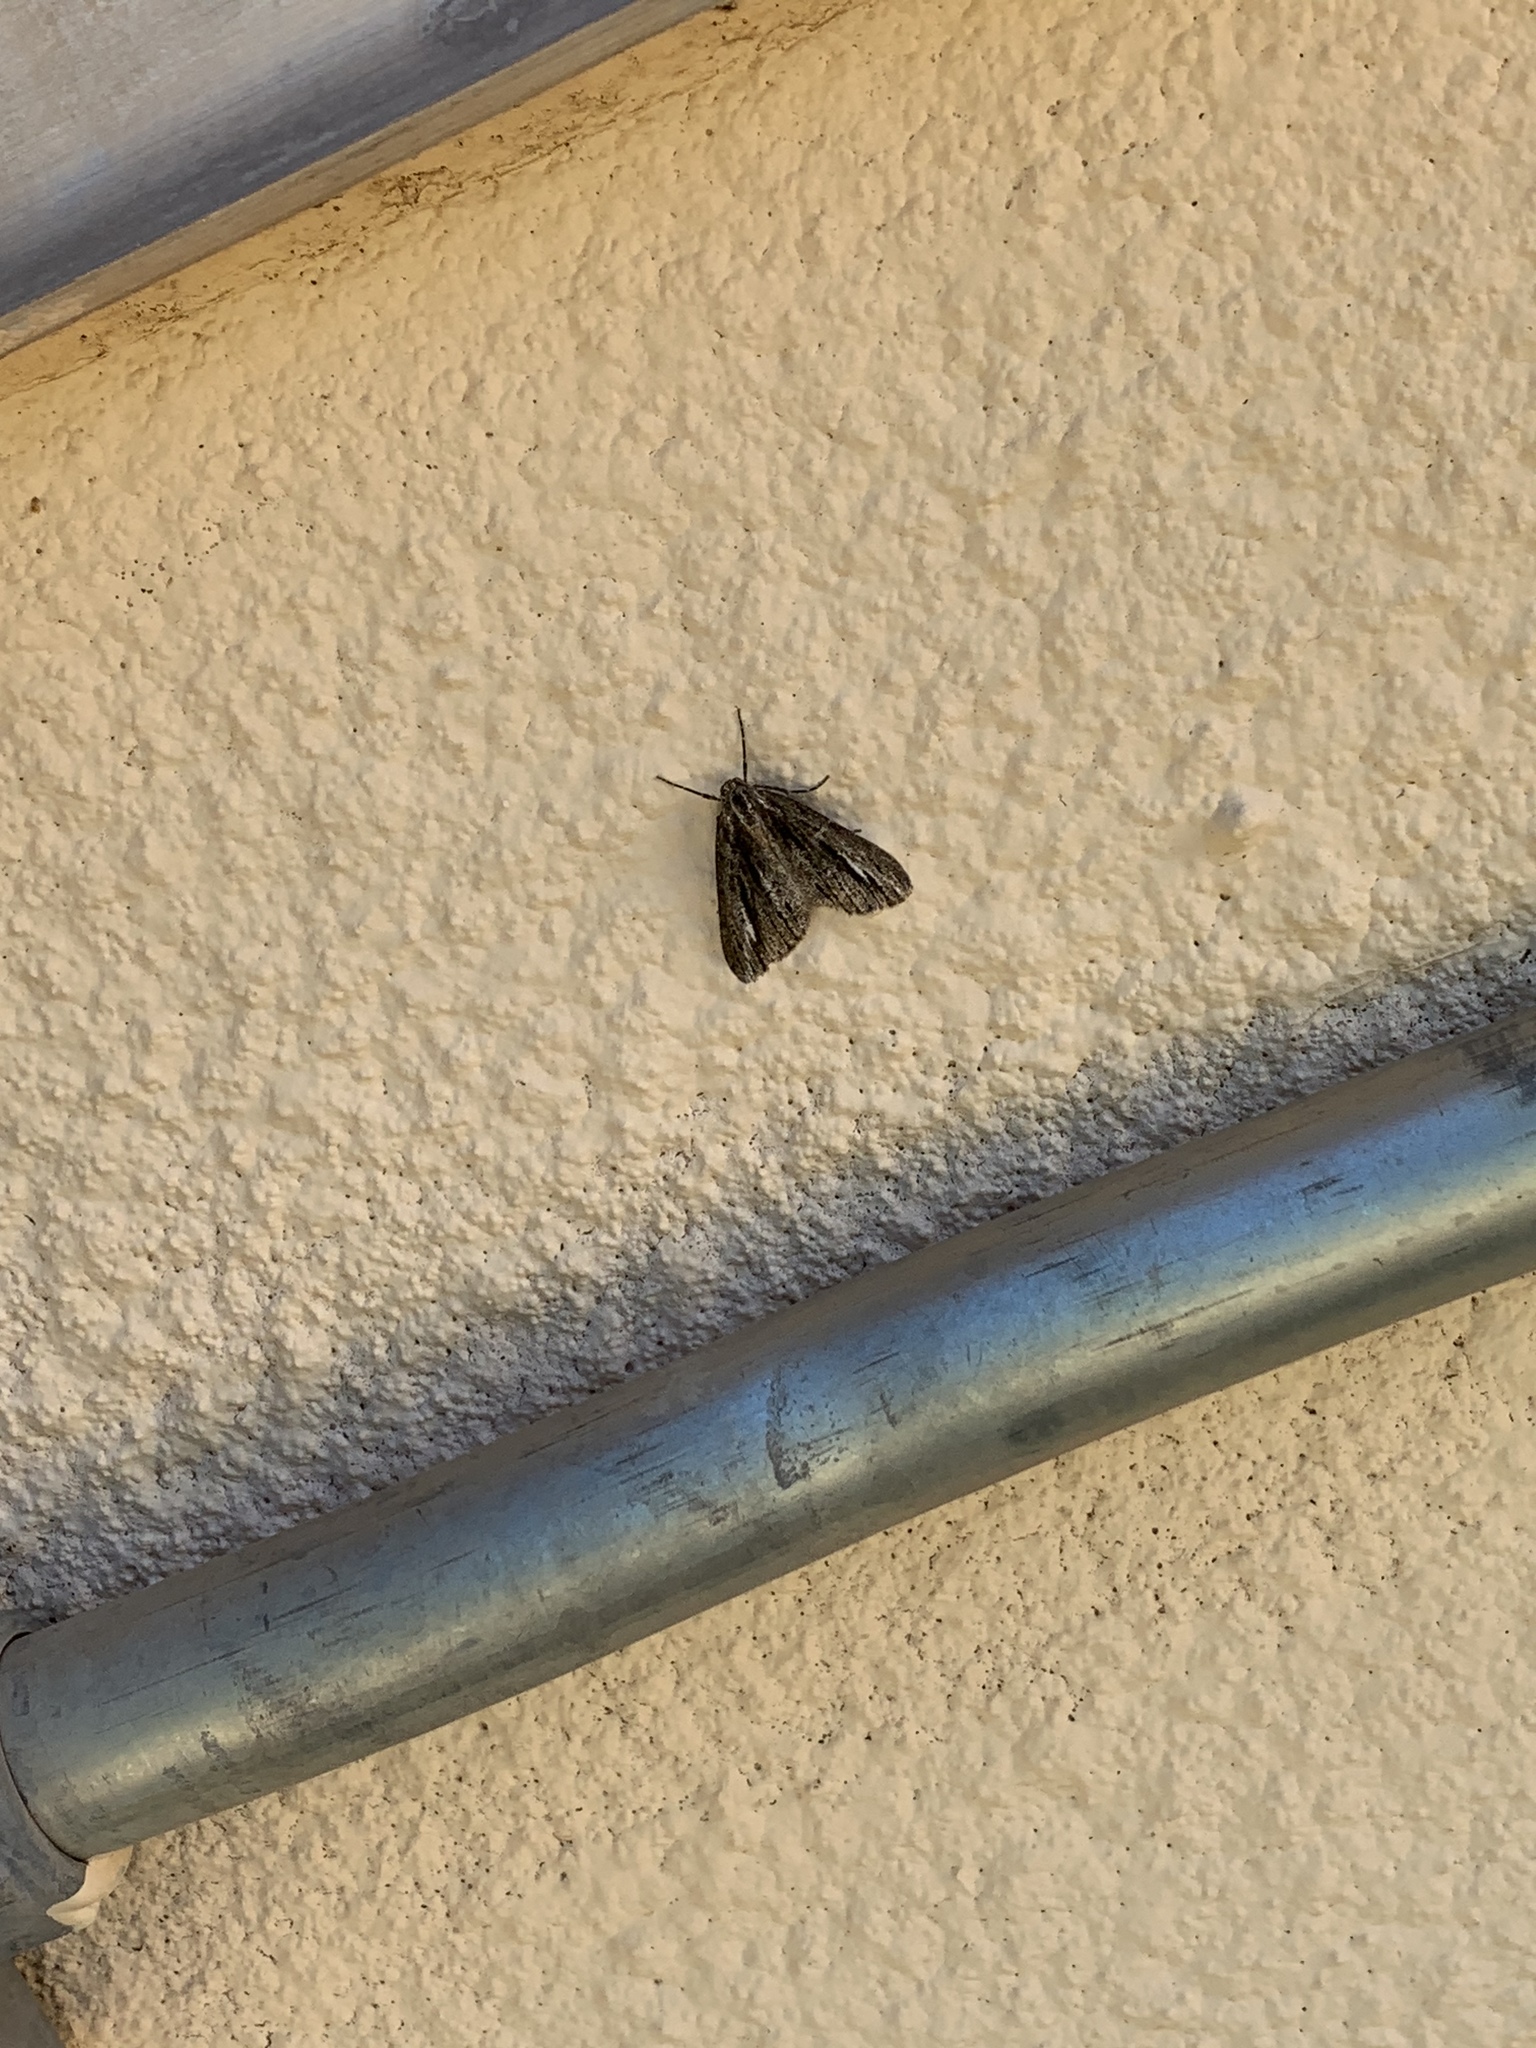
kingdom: Animalia
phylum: Arthropoda
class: Insecta
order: Lepidoptera
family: Geometridae
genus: Carphoides
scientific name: Carphoides incopriarius
